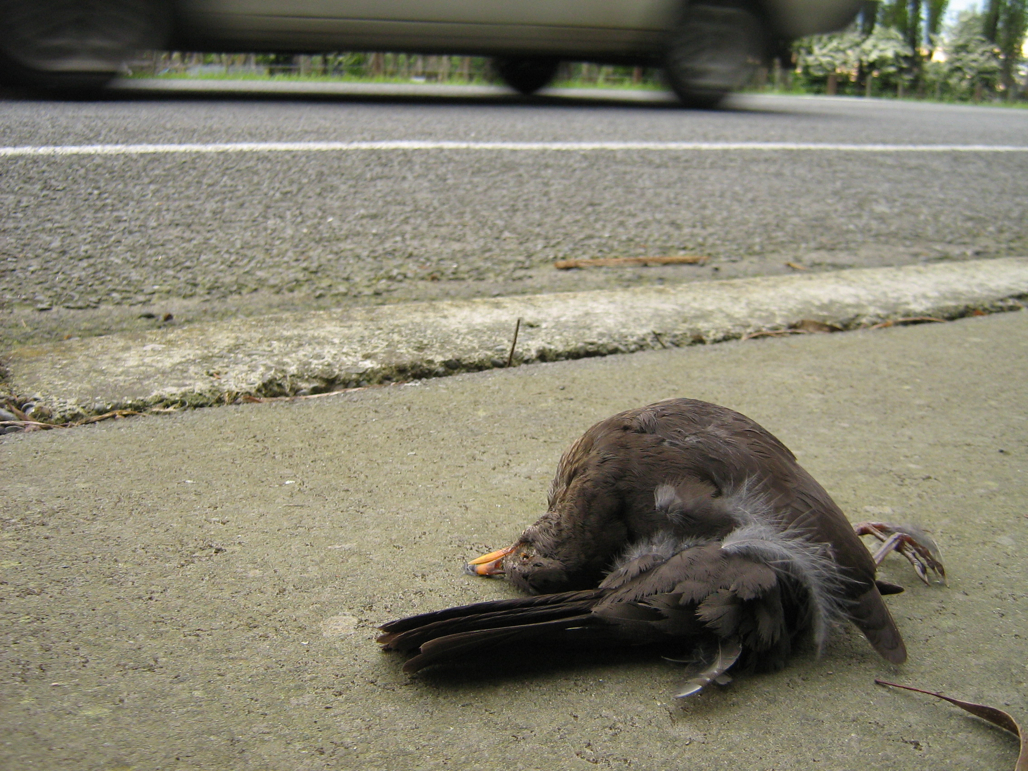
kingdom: Animalia
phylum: Chordata
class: Aves
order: Passeriformes
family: Turdidae
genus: Turdus
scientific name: Turdus merula
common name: Common blackbird
